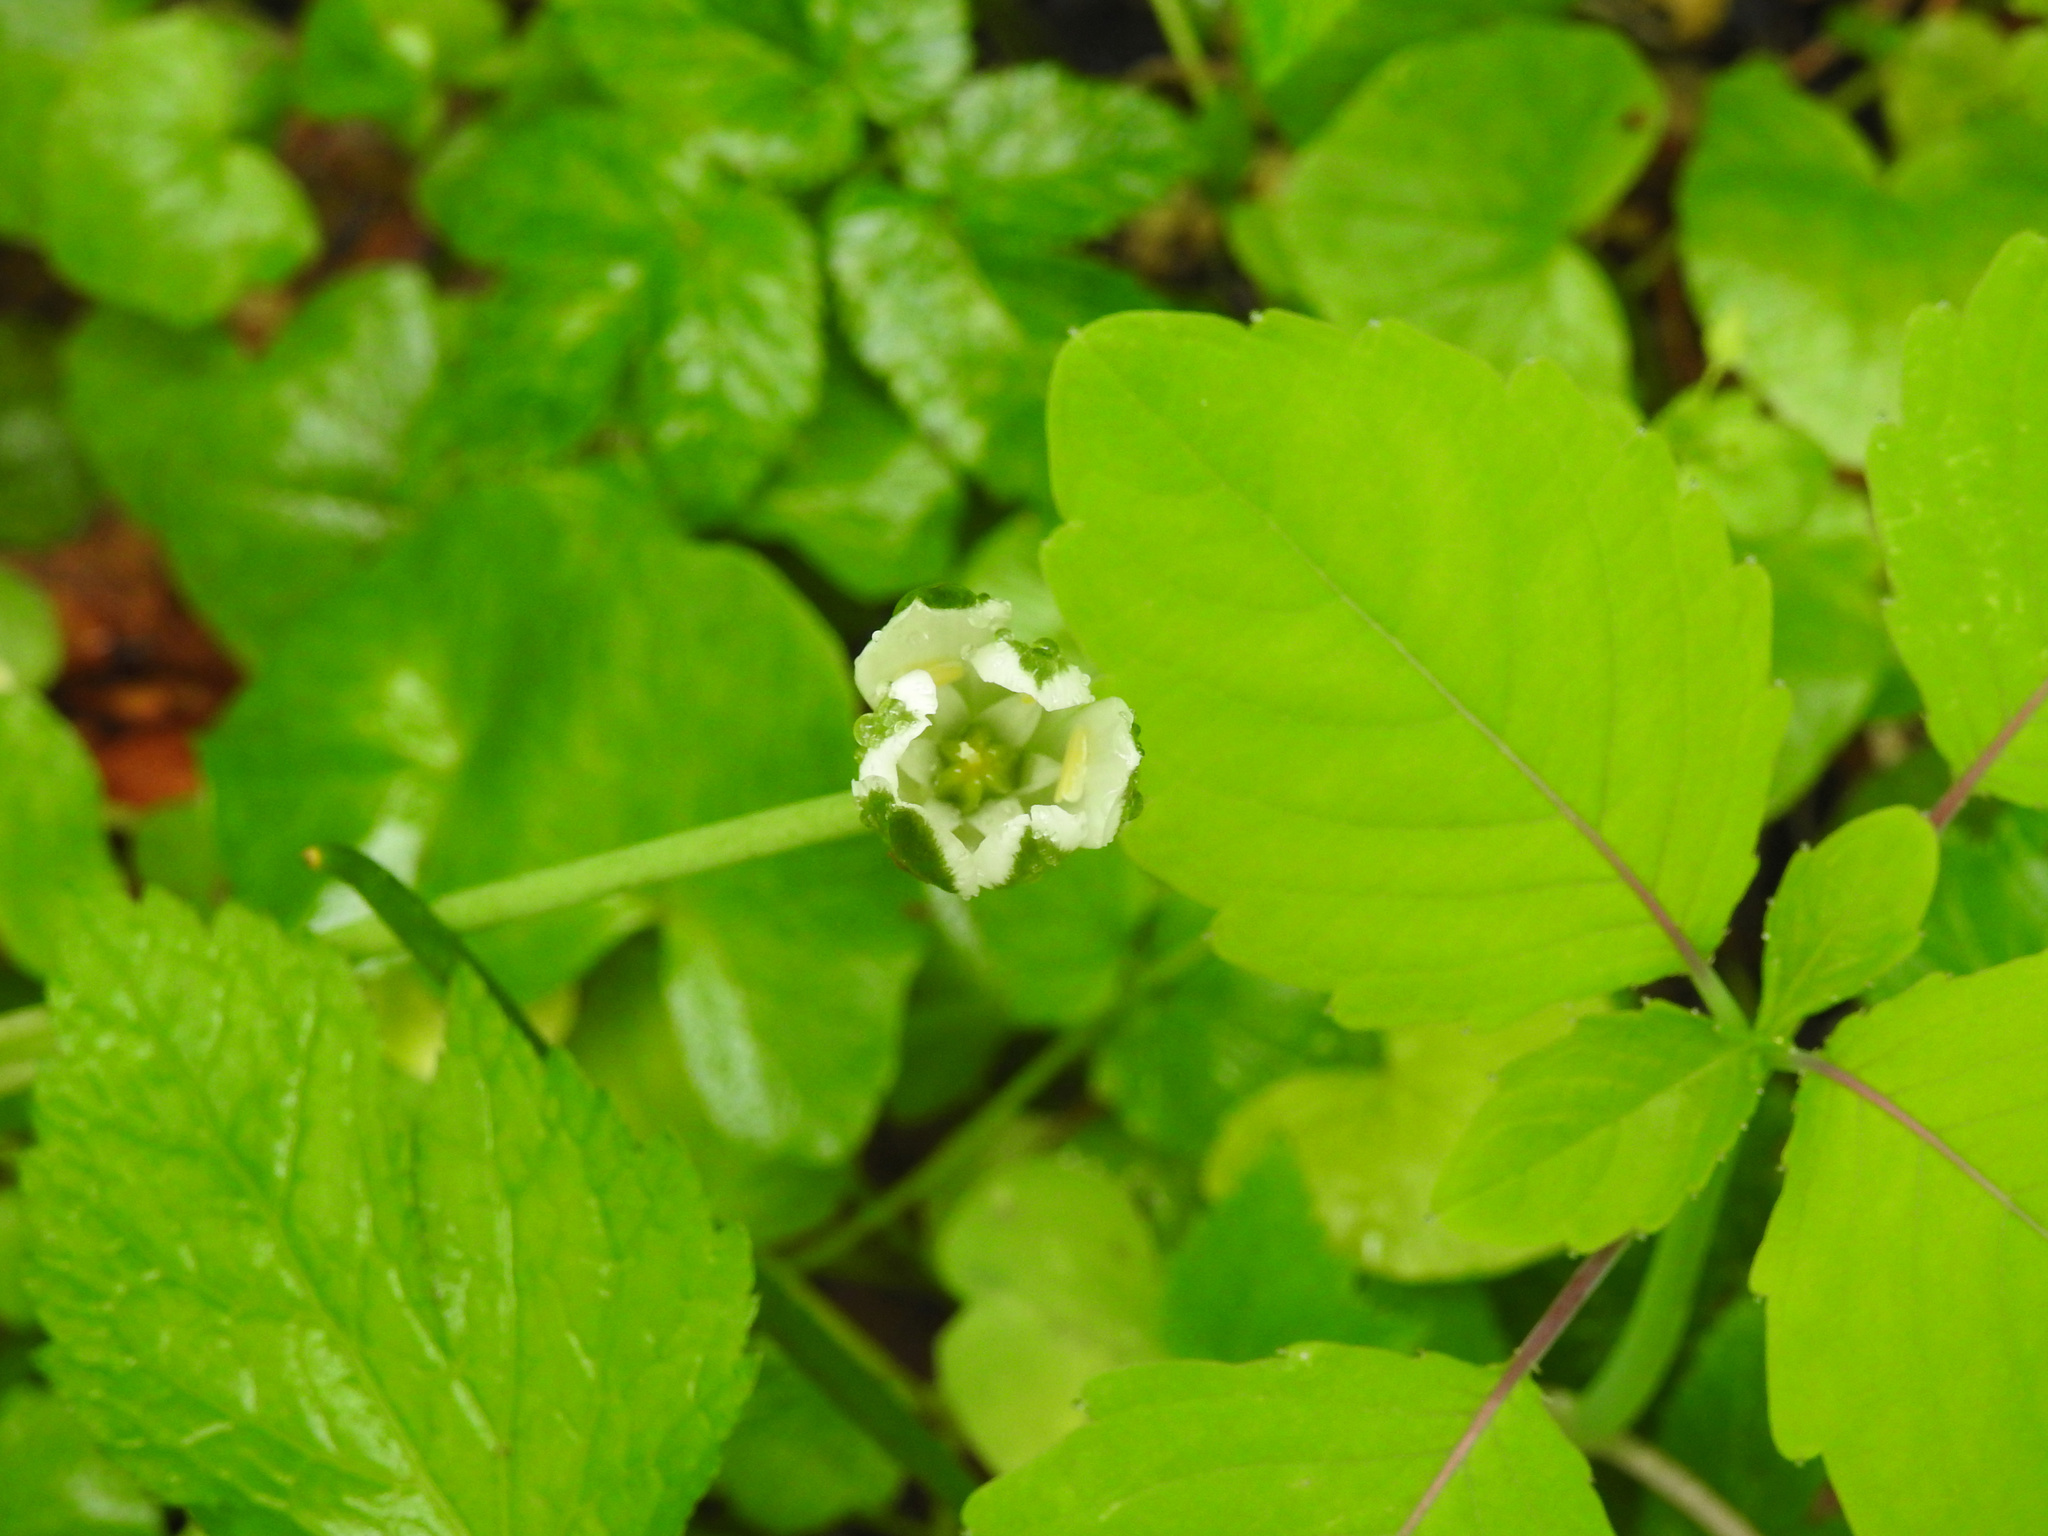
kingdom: Plantae
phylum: Tracheophyta
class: Magnoliopsida
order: Brassicales
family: Brassicaceae
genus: Alliaria
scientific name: Alliaria petiolata
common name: Garlic mustard
